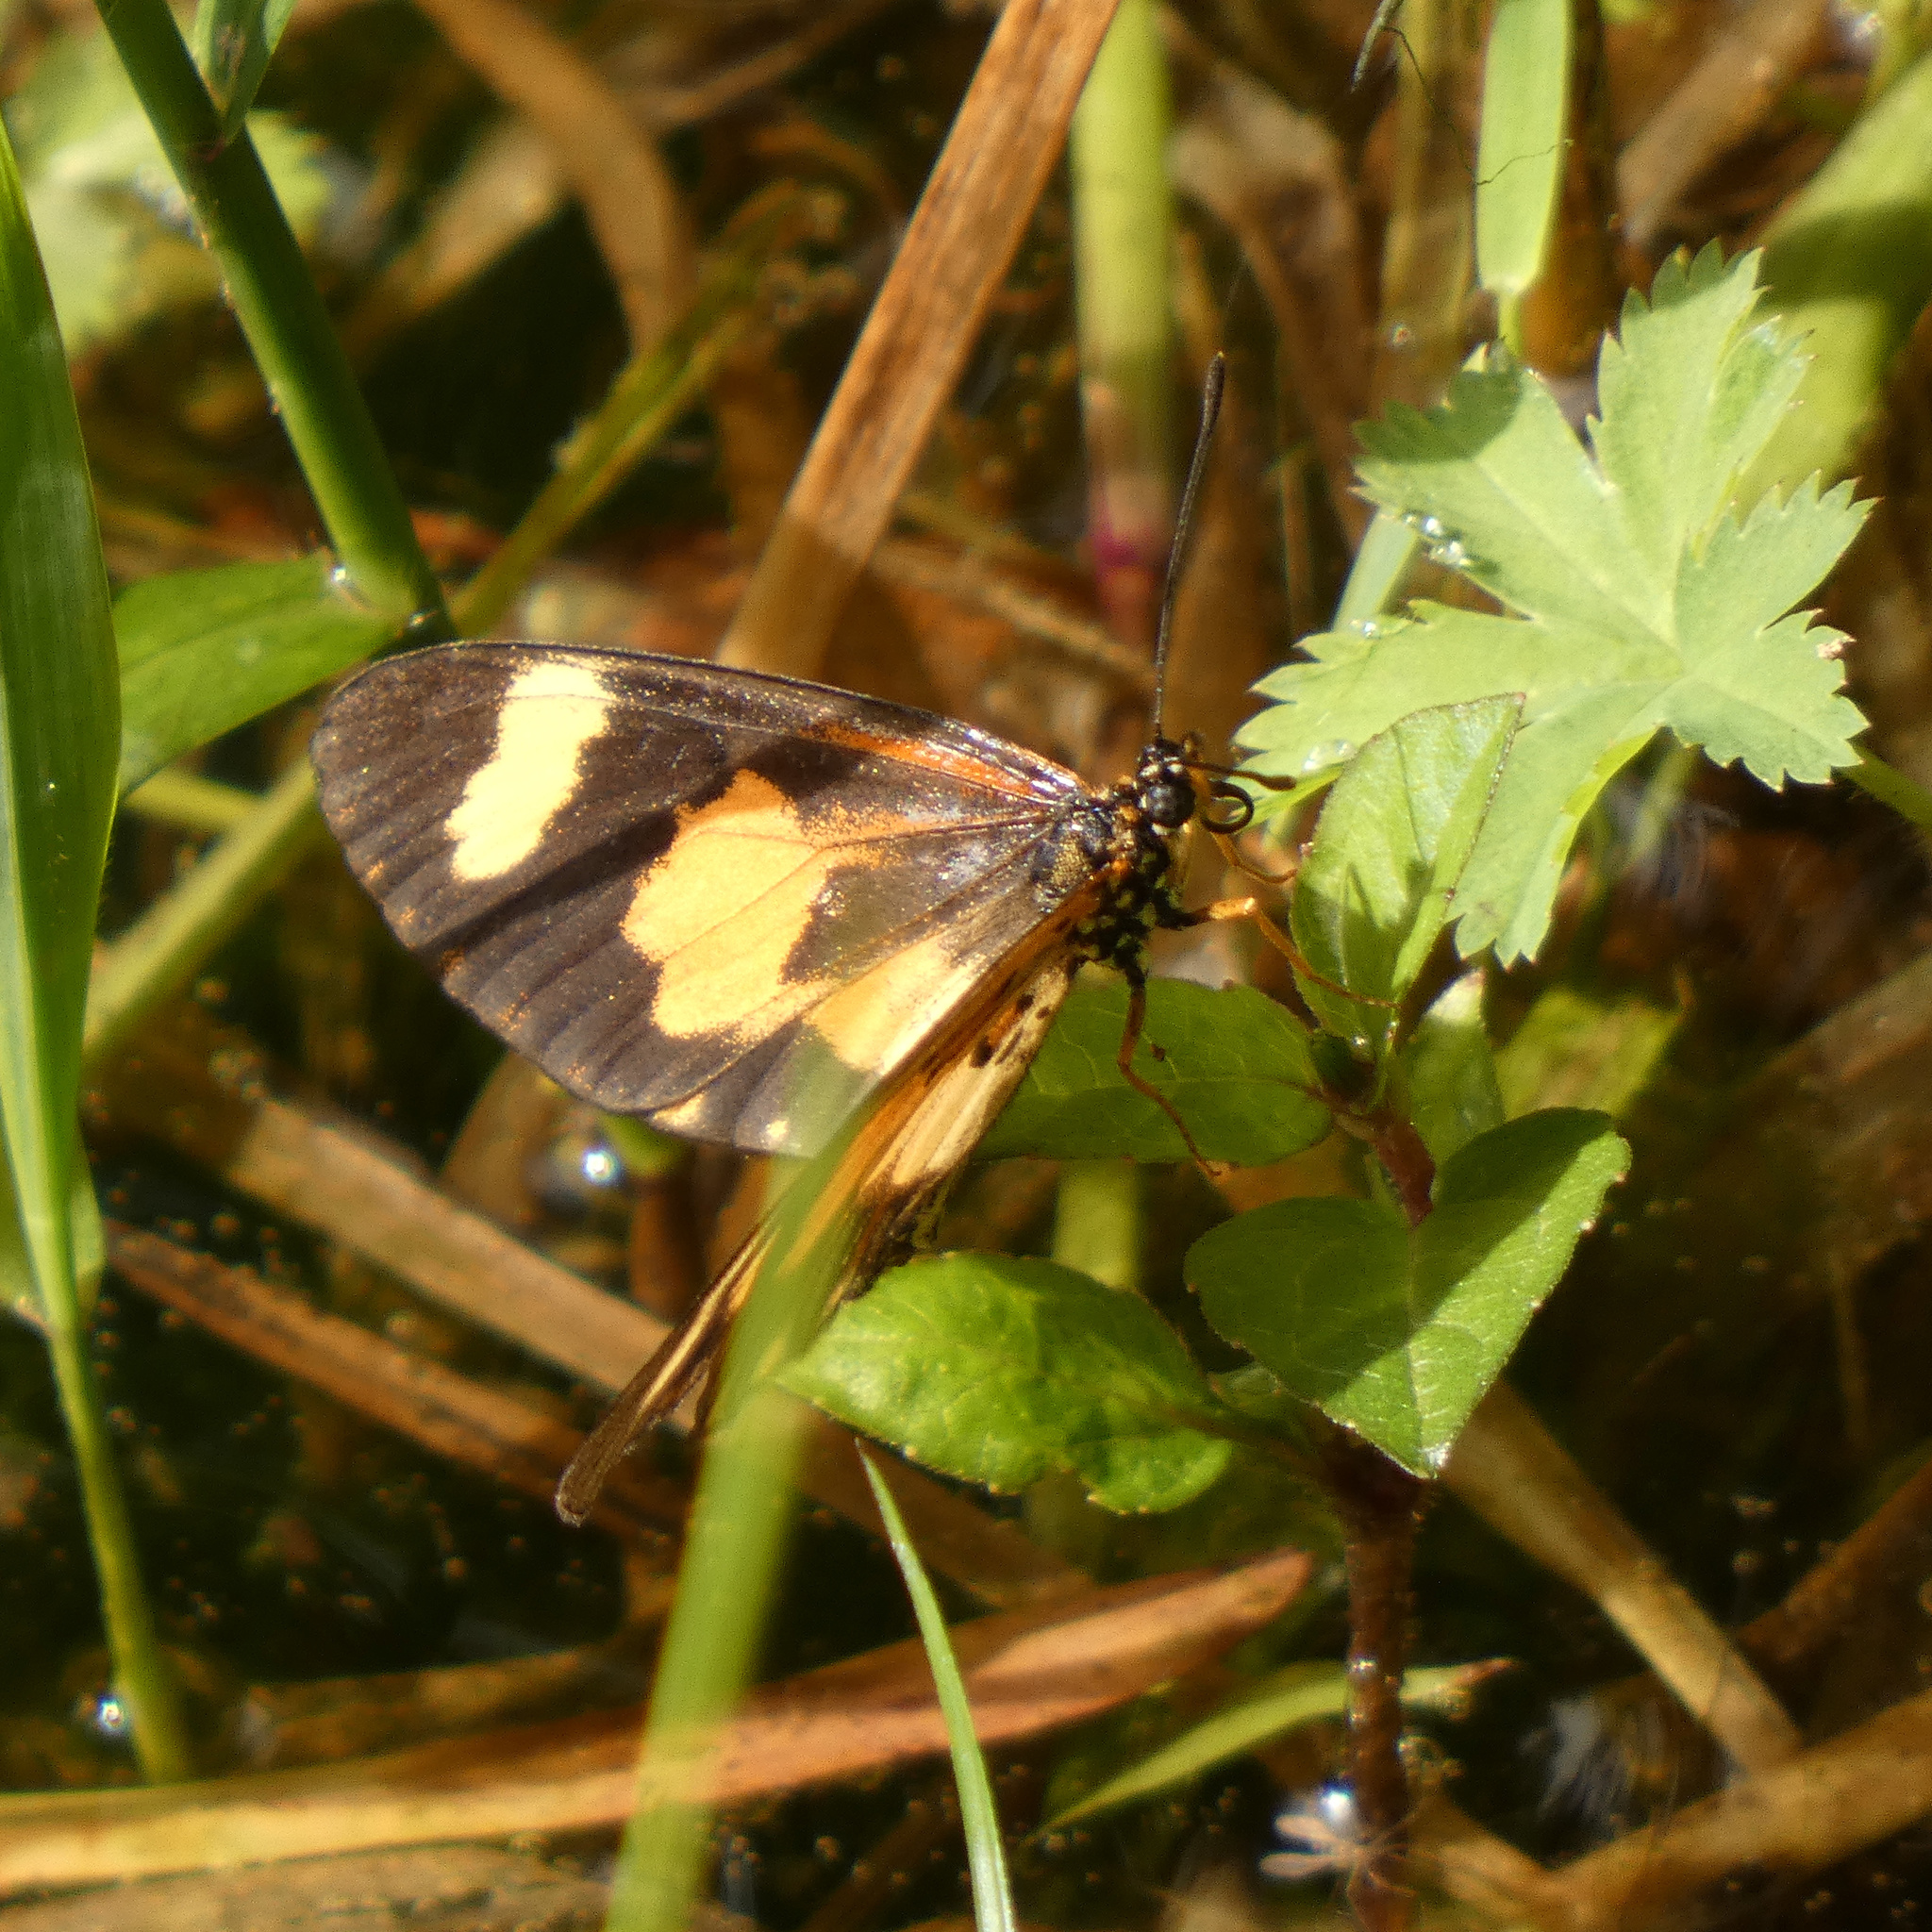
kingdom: Animalia
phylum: Arthropoda
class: Insecta
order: Lepidoptera
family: Nymphalidae
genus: Acraea
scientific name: Acraea cabira
